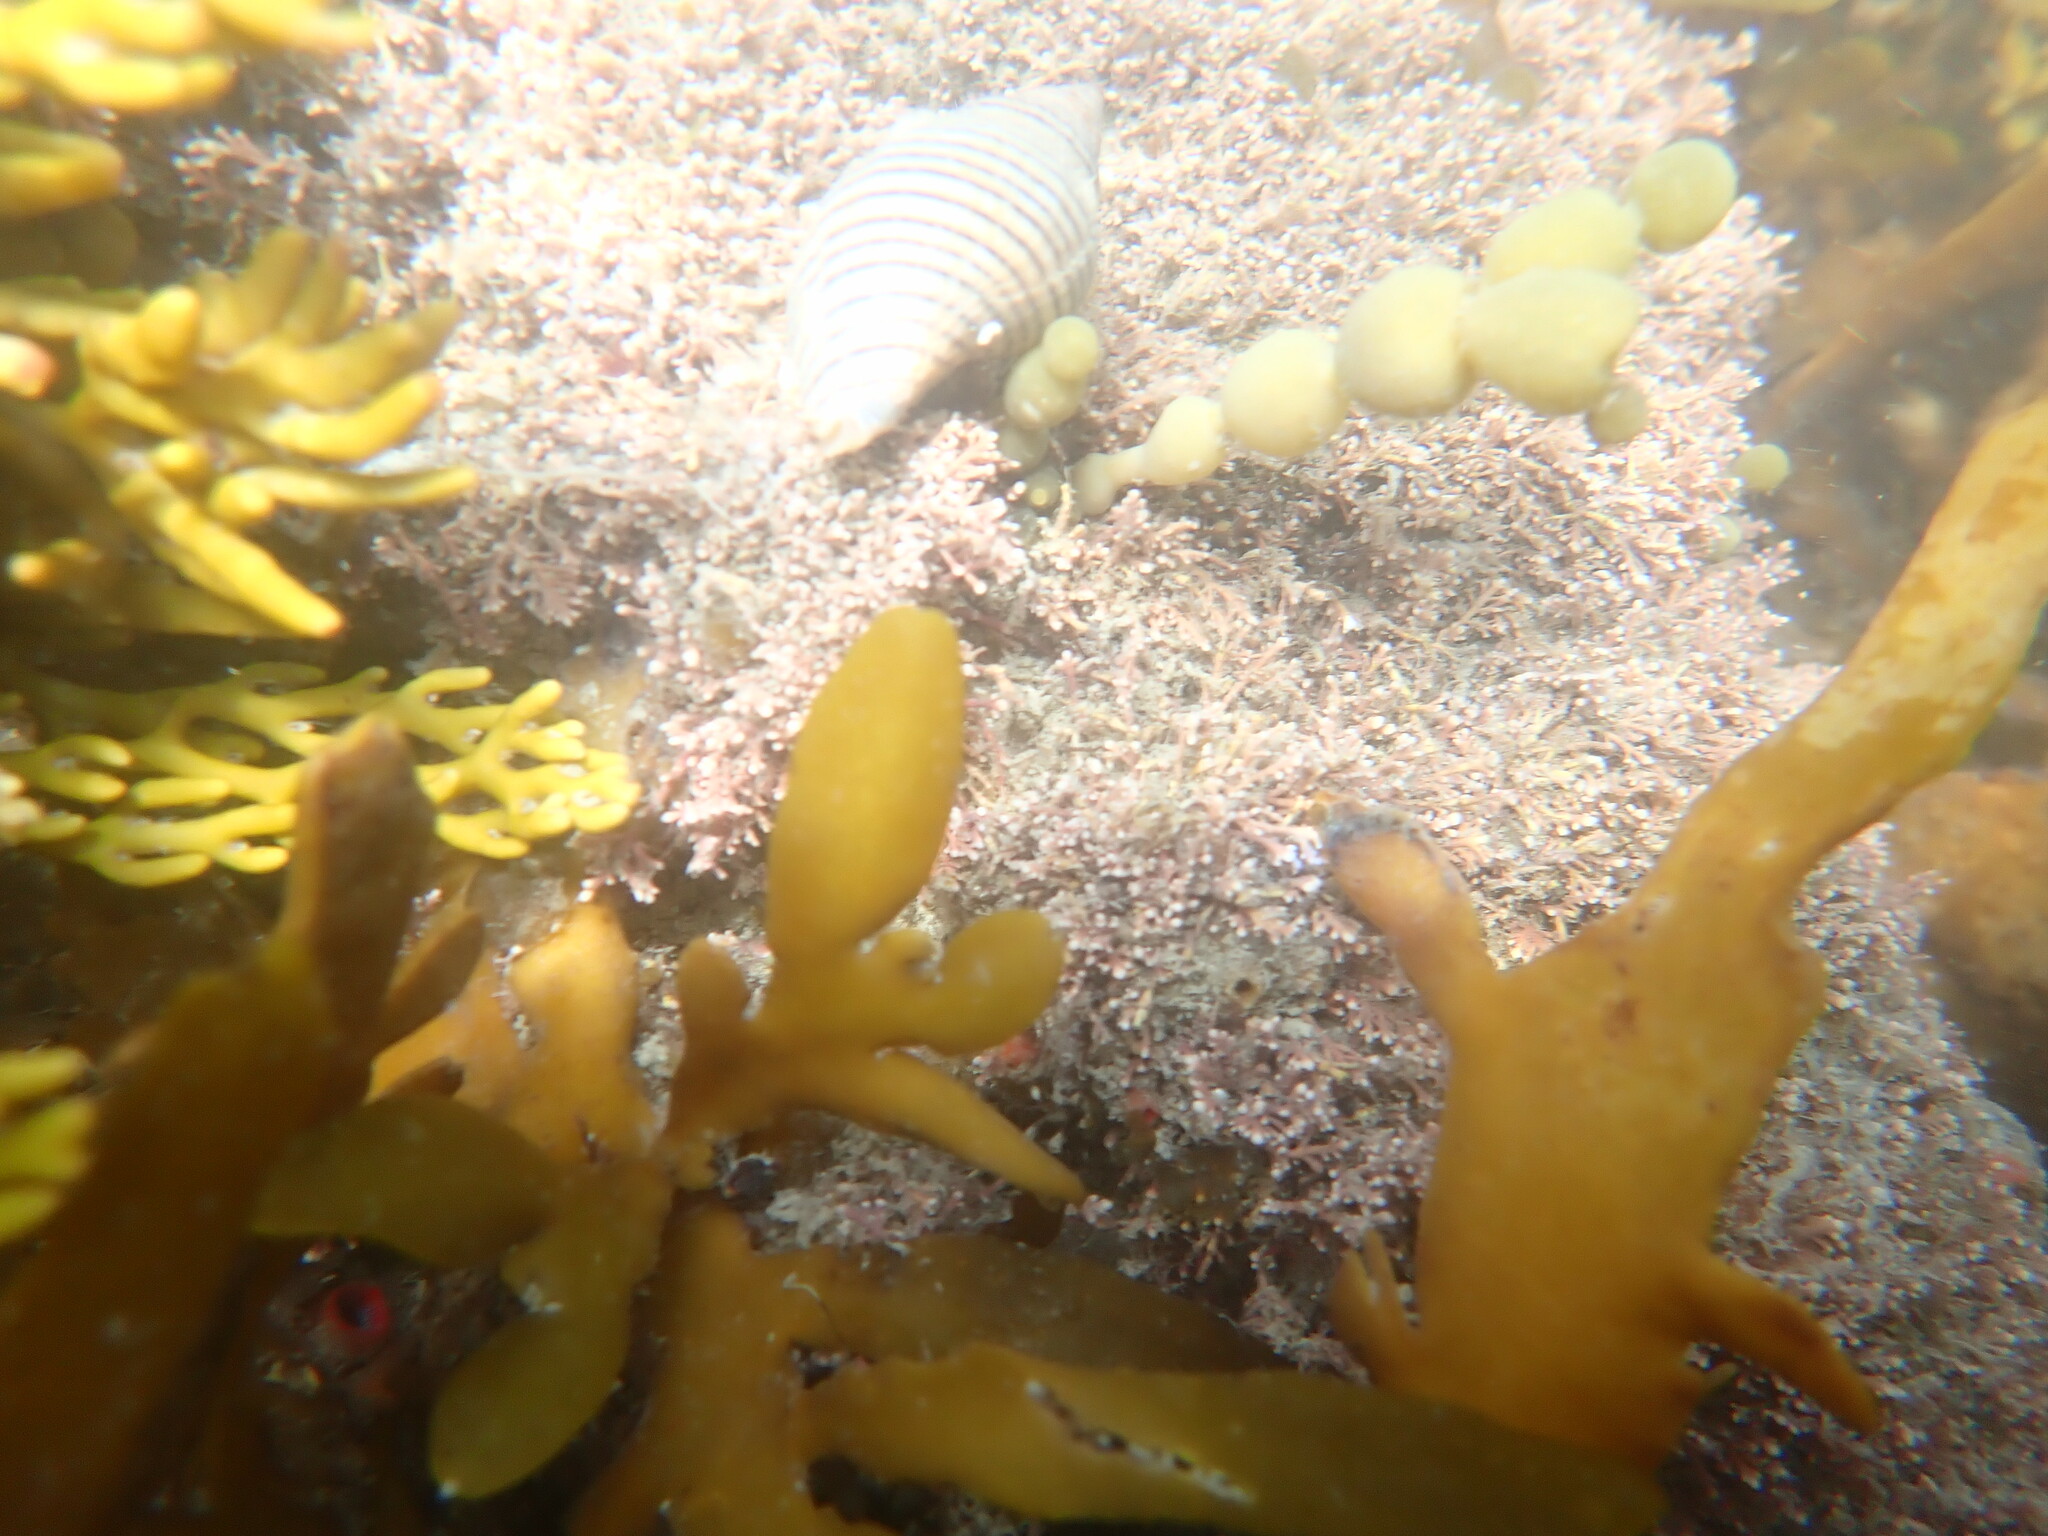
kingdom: Animalia
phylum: Mollusca
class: Gastropoda
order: Neogastropoda
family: Tudiclidae
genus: Buccinulum
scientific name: Buccinulum linea
